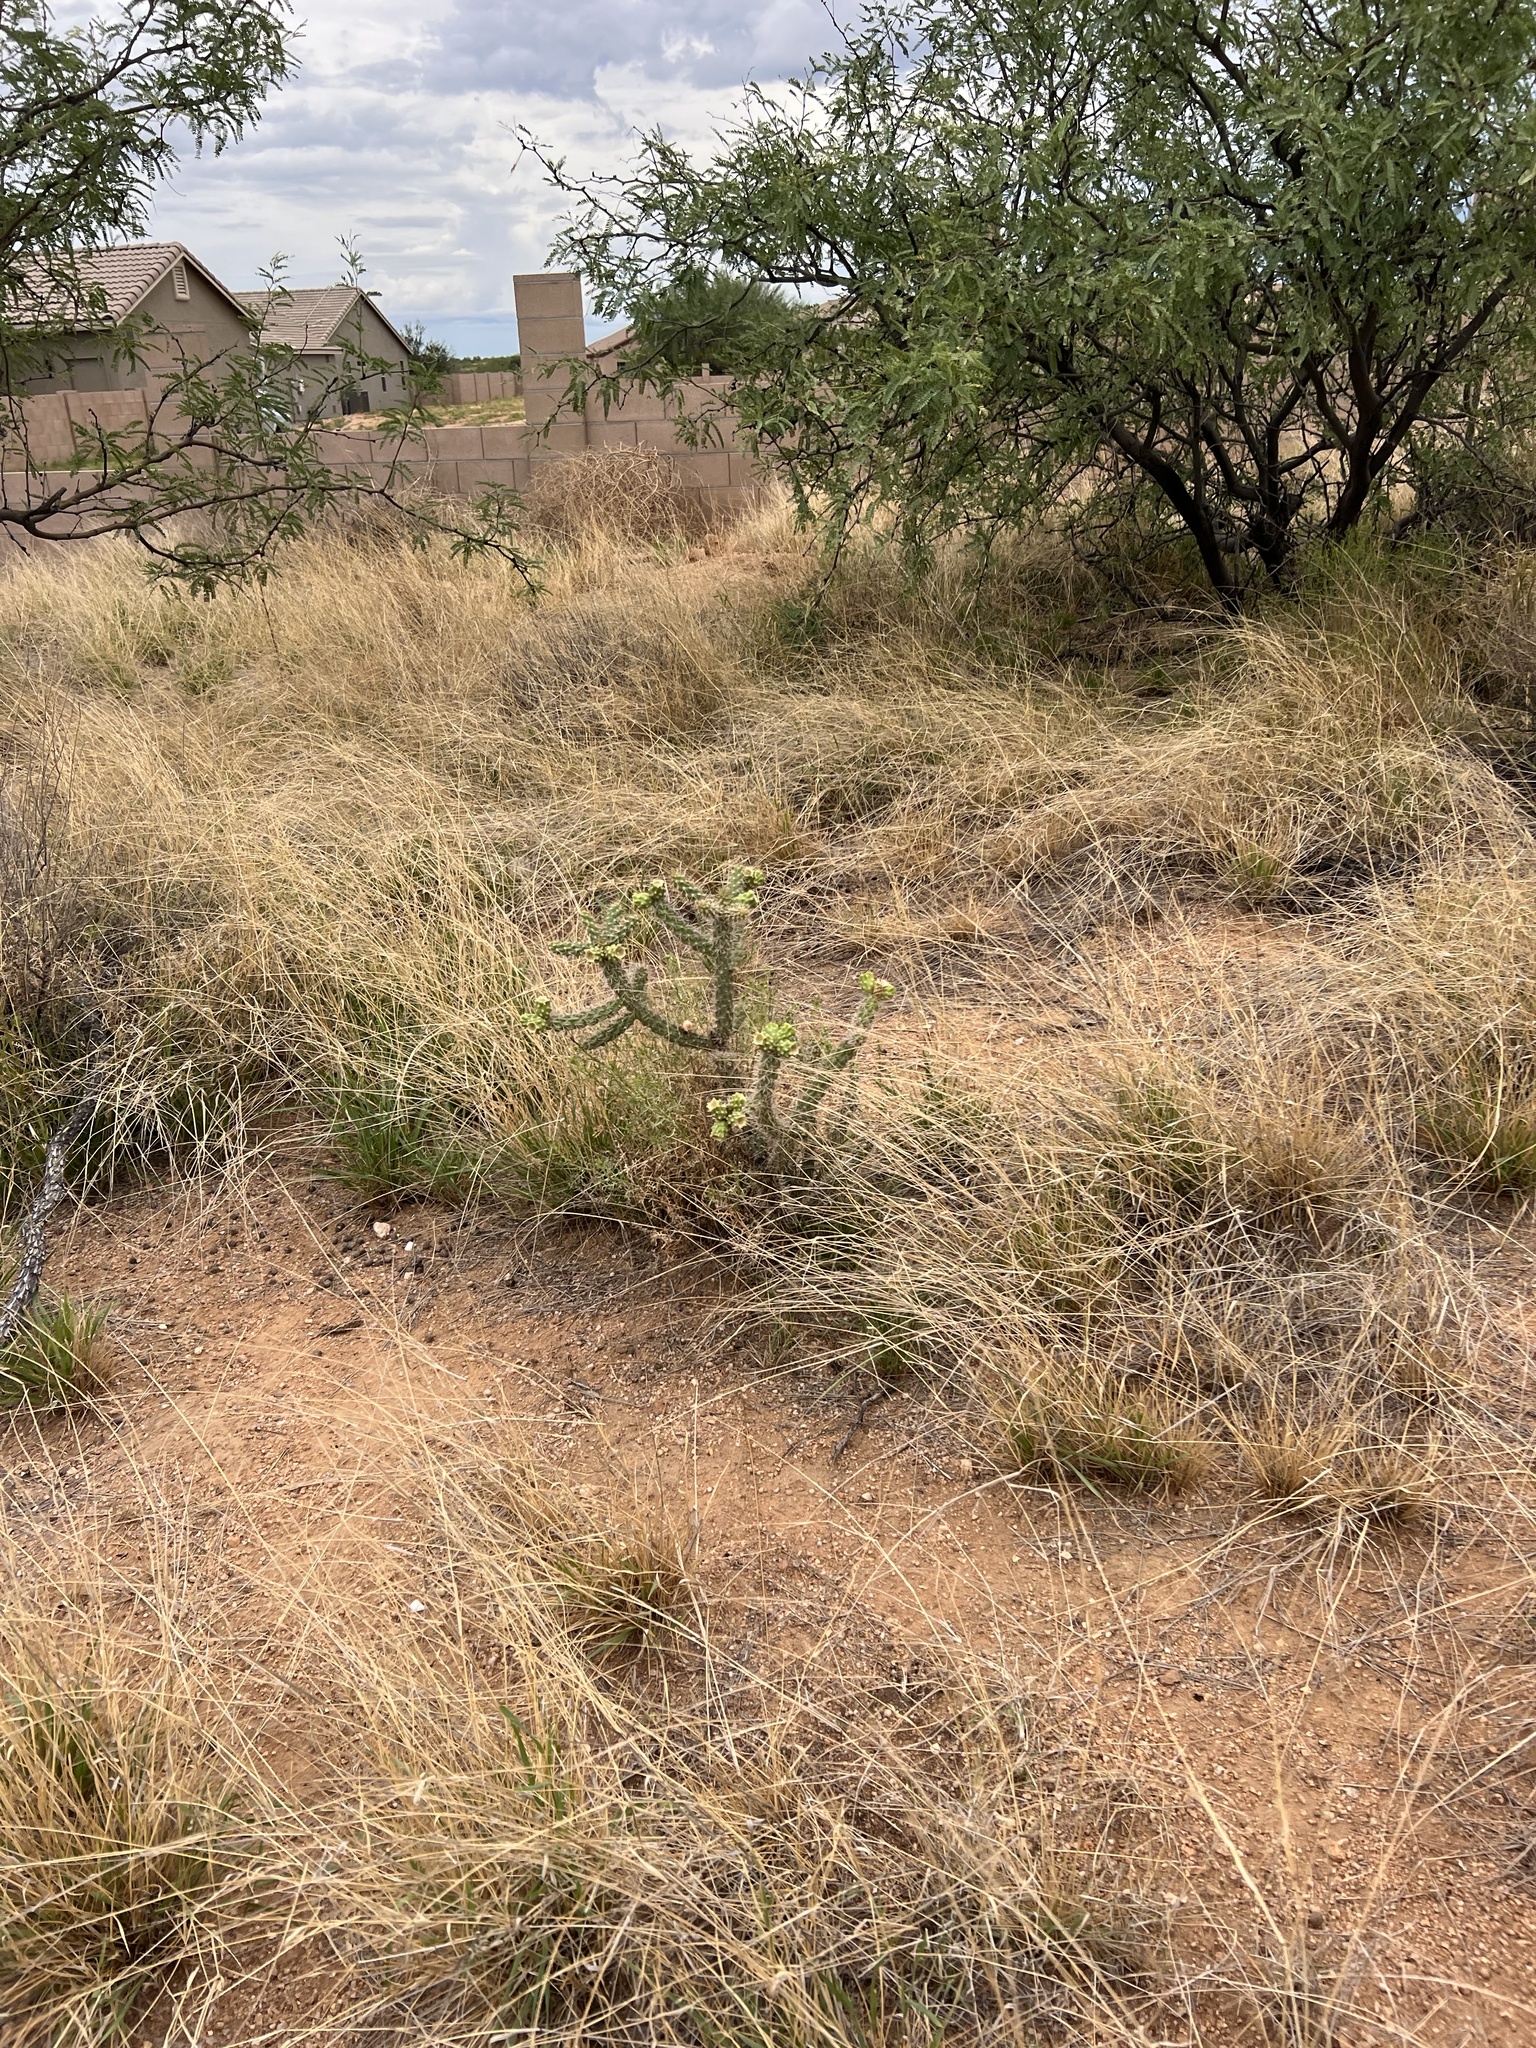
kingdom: Plantae
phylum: Tracheophyta
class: Magnoliopsida
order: Caryophyllales
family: Cactaceae
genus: Cylindropuntia
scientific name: Cylindropuntia imbricata
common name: Candelabrum cactus
